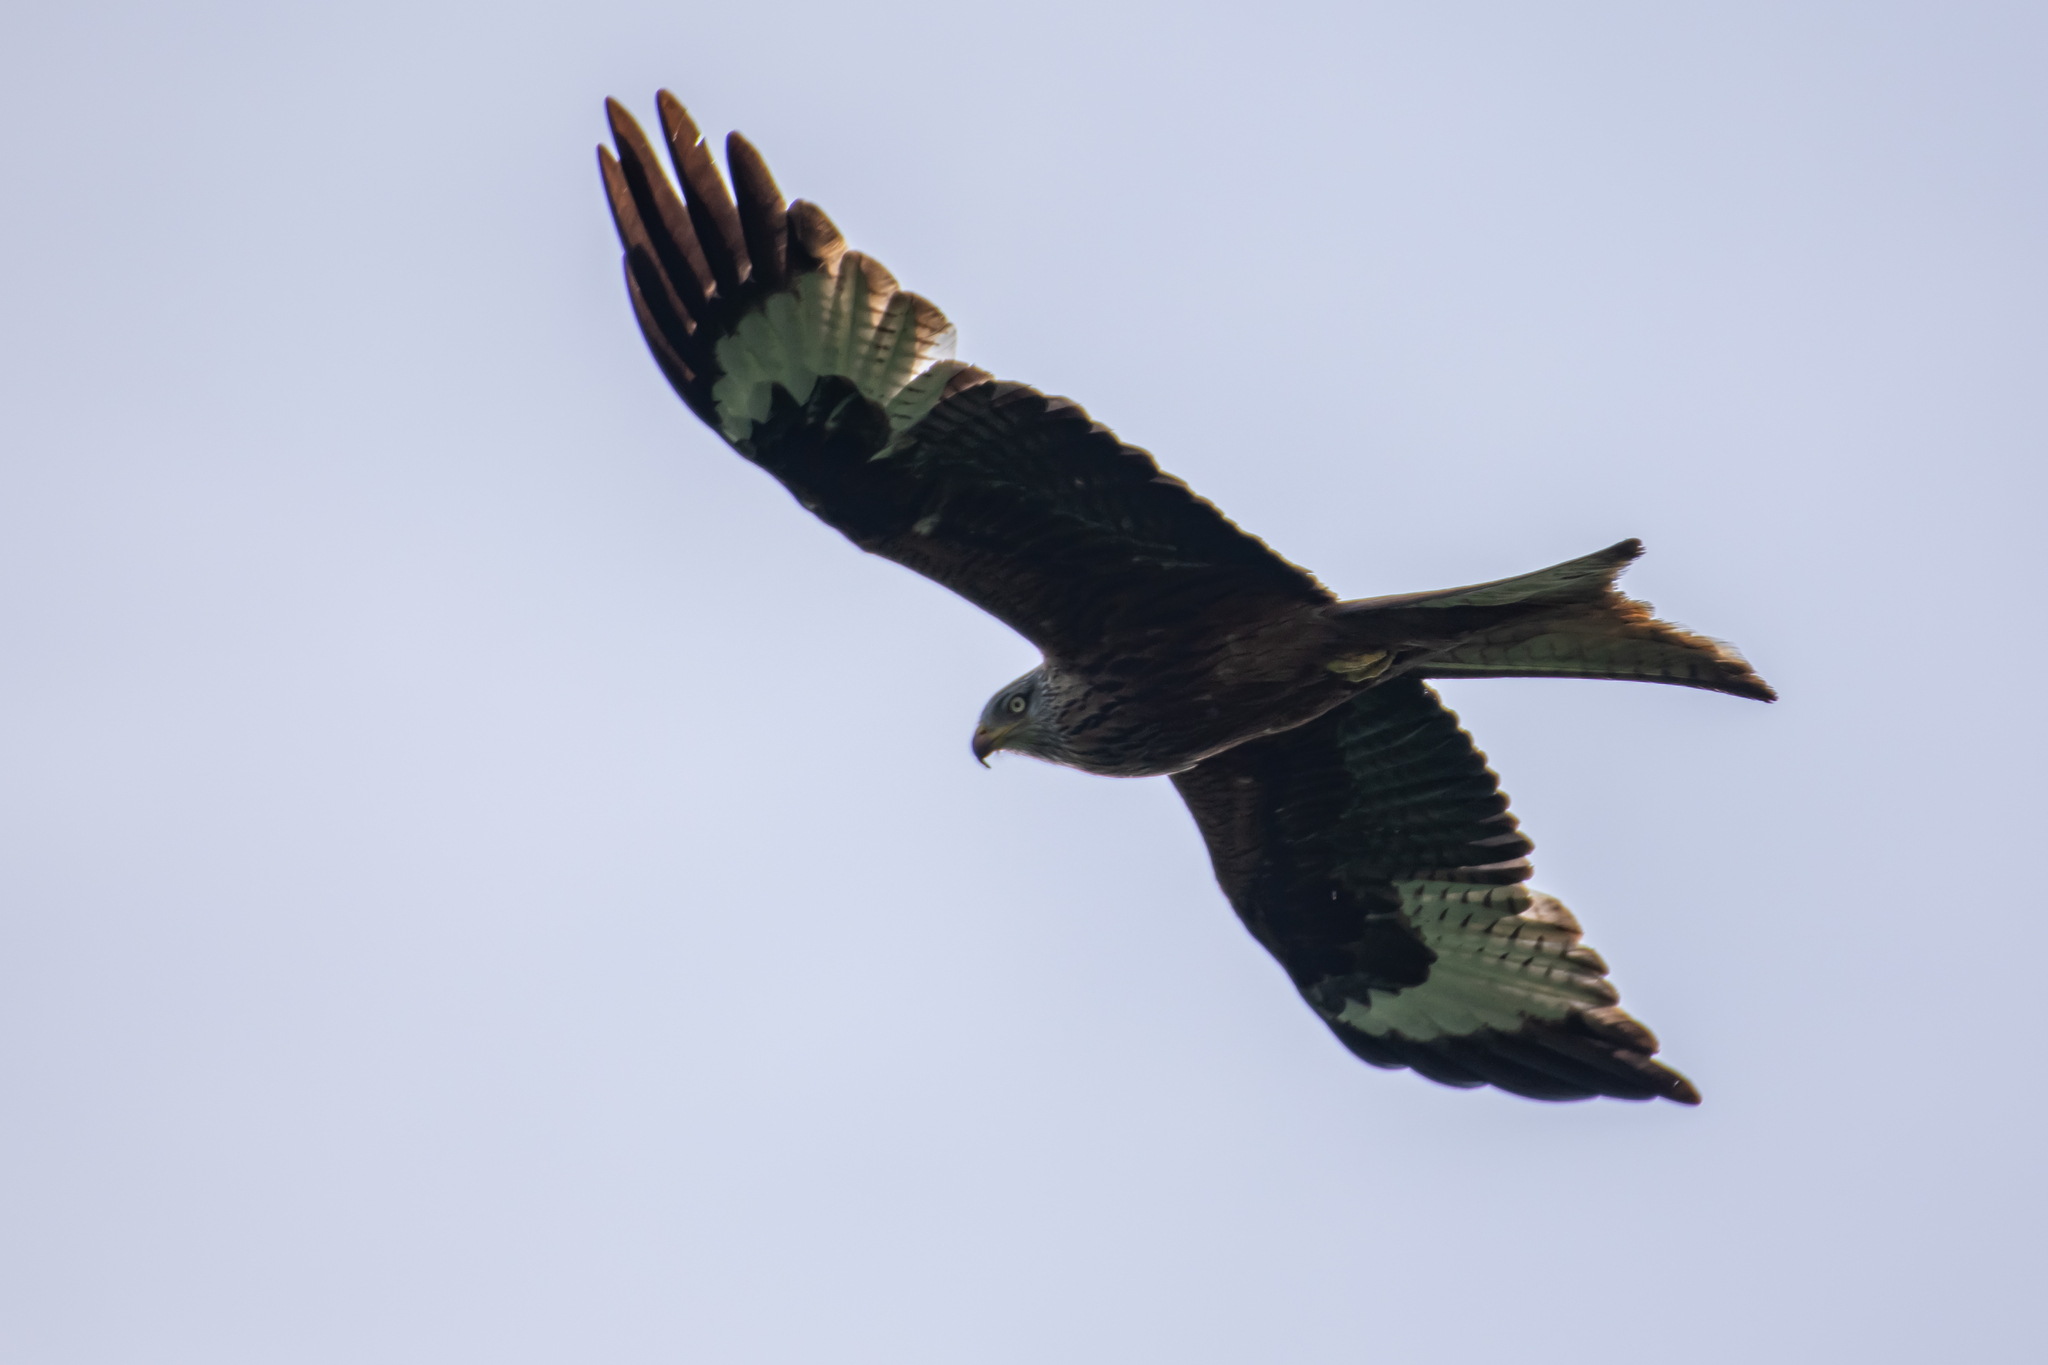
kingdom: Animalia
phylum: Chordata
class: Aves
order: Accipitriformes
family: Accipitridae
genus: Milvus
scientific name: Milvus milvus
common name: Red kite
